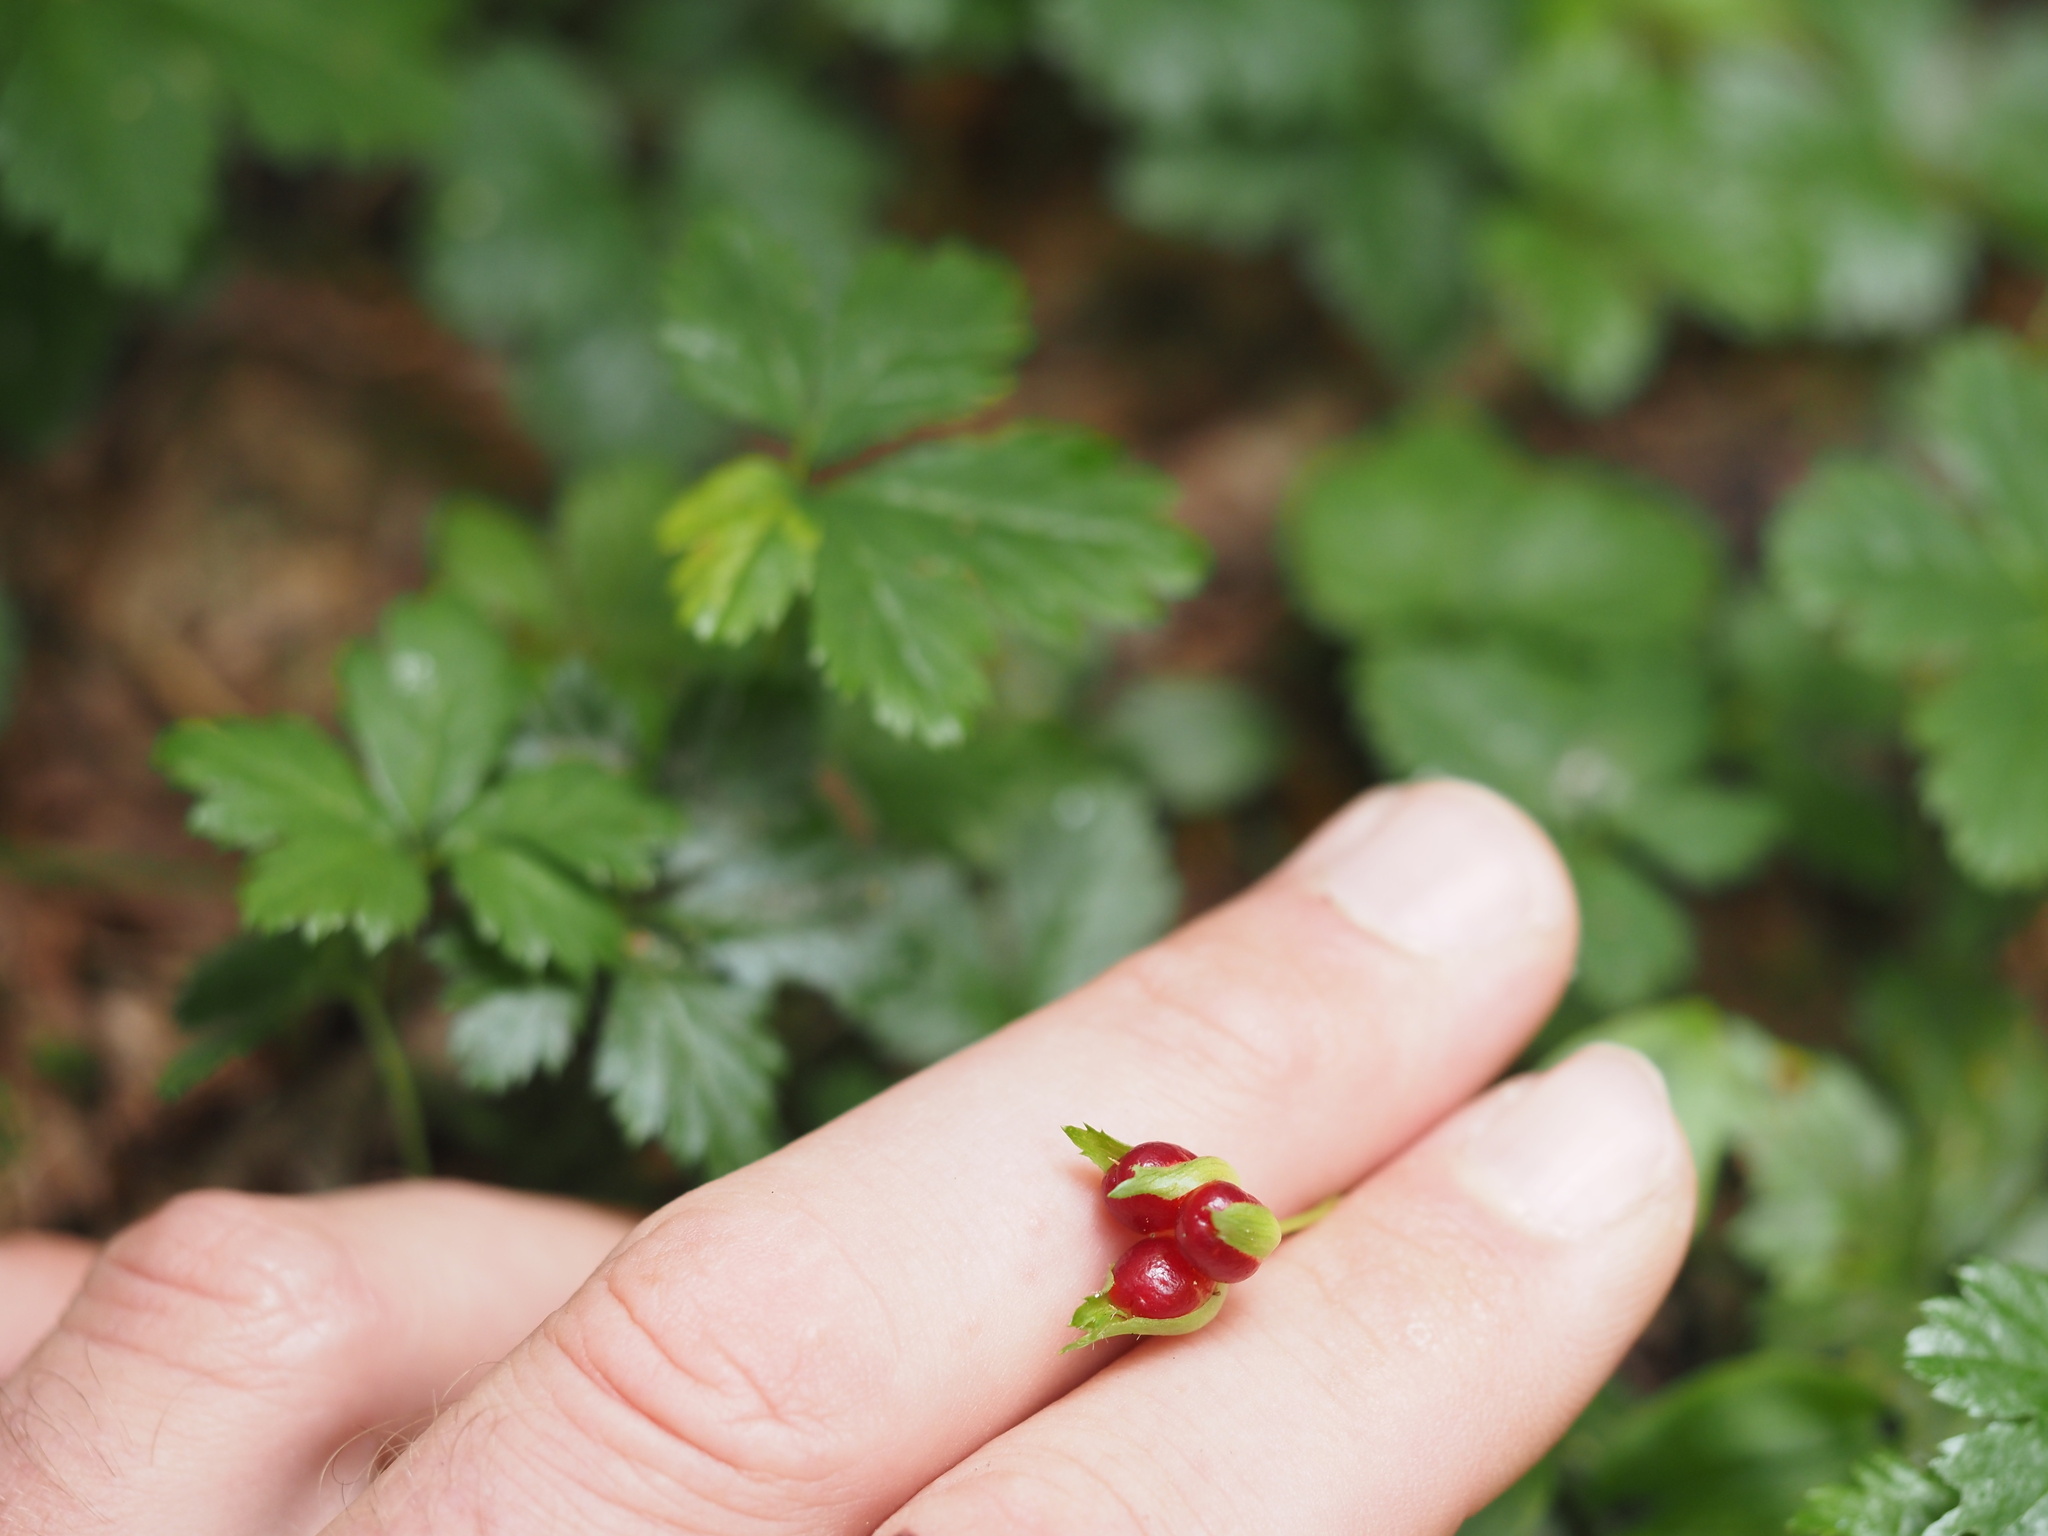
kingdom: Plantae
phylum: Tracheophyta
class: Magnoliopsida
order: Rosales
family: Rosaceae
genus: Rubus
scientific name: Rubus pedatus
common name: Creeping raspberry
